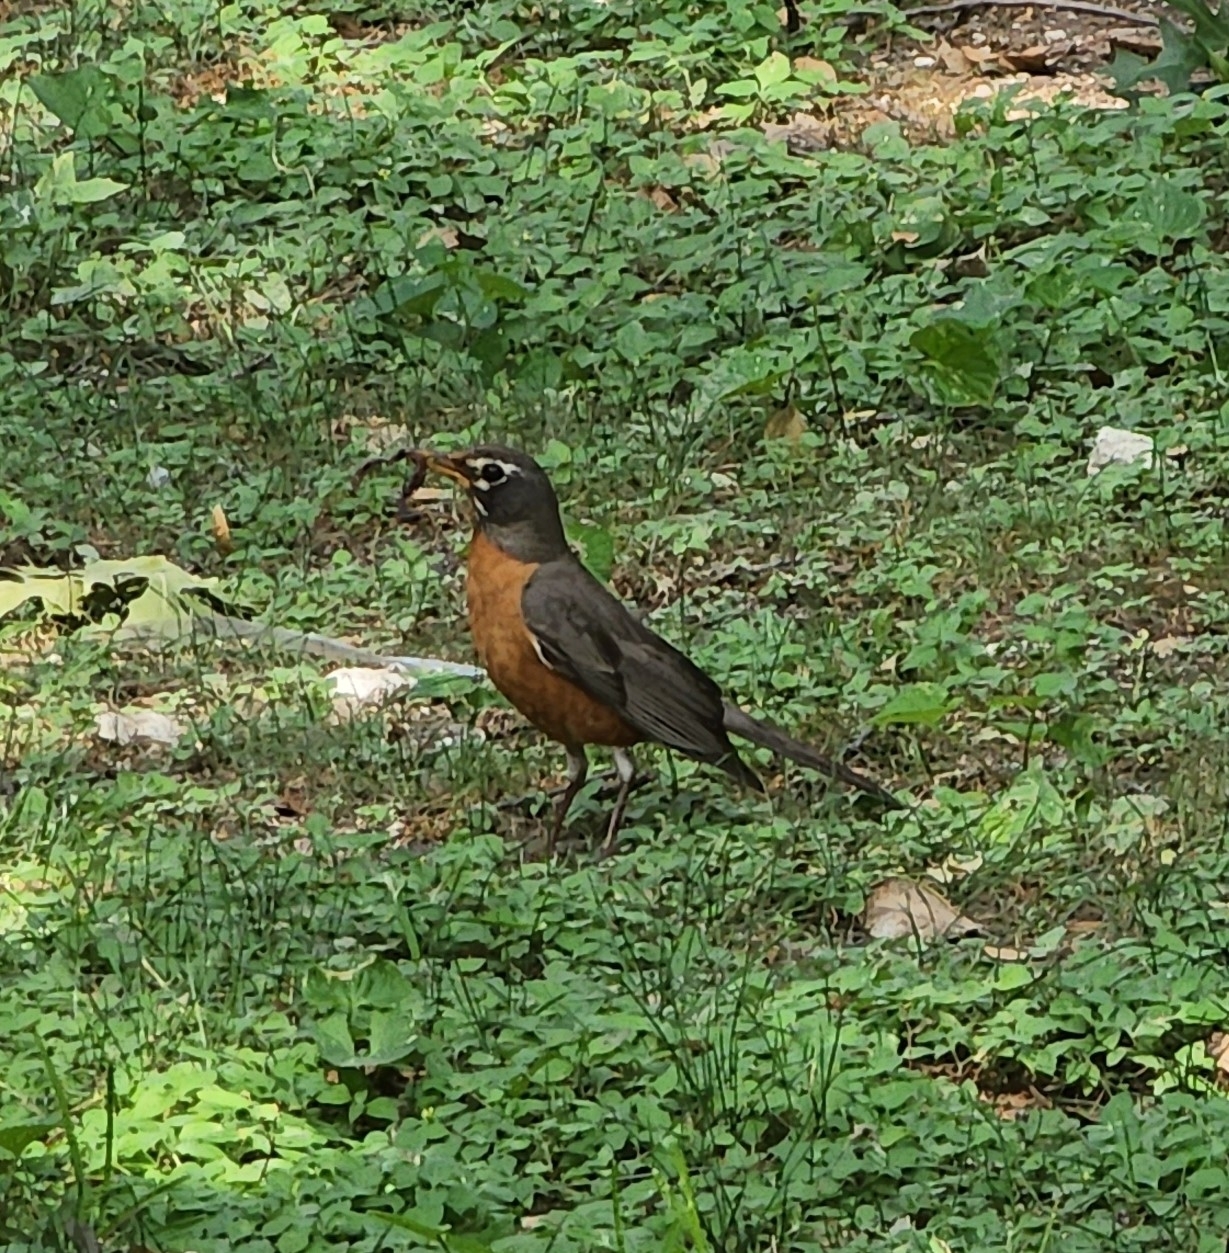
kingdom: Animalia
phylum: Chordata
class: Aves
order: Passeriformes
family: Turdidae
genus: Turdus
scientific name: Turdus migratorius
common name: American robin
